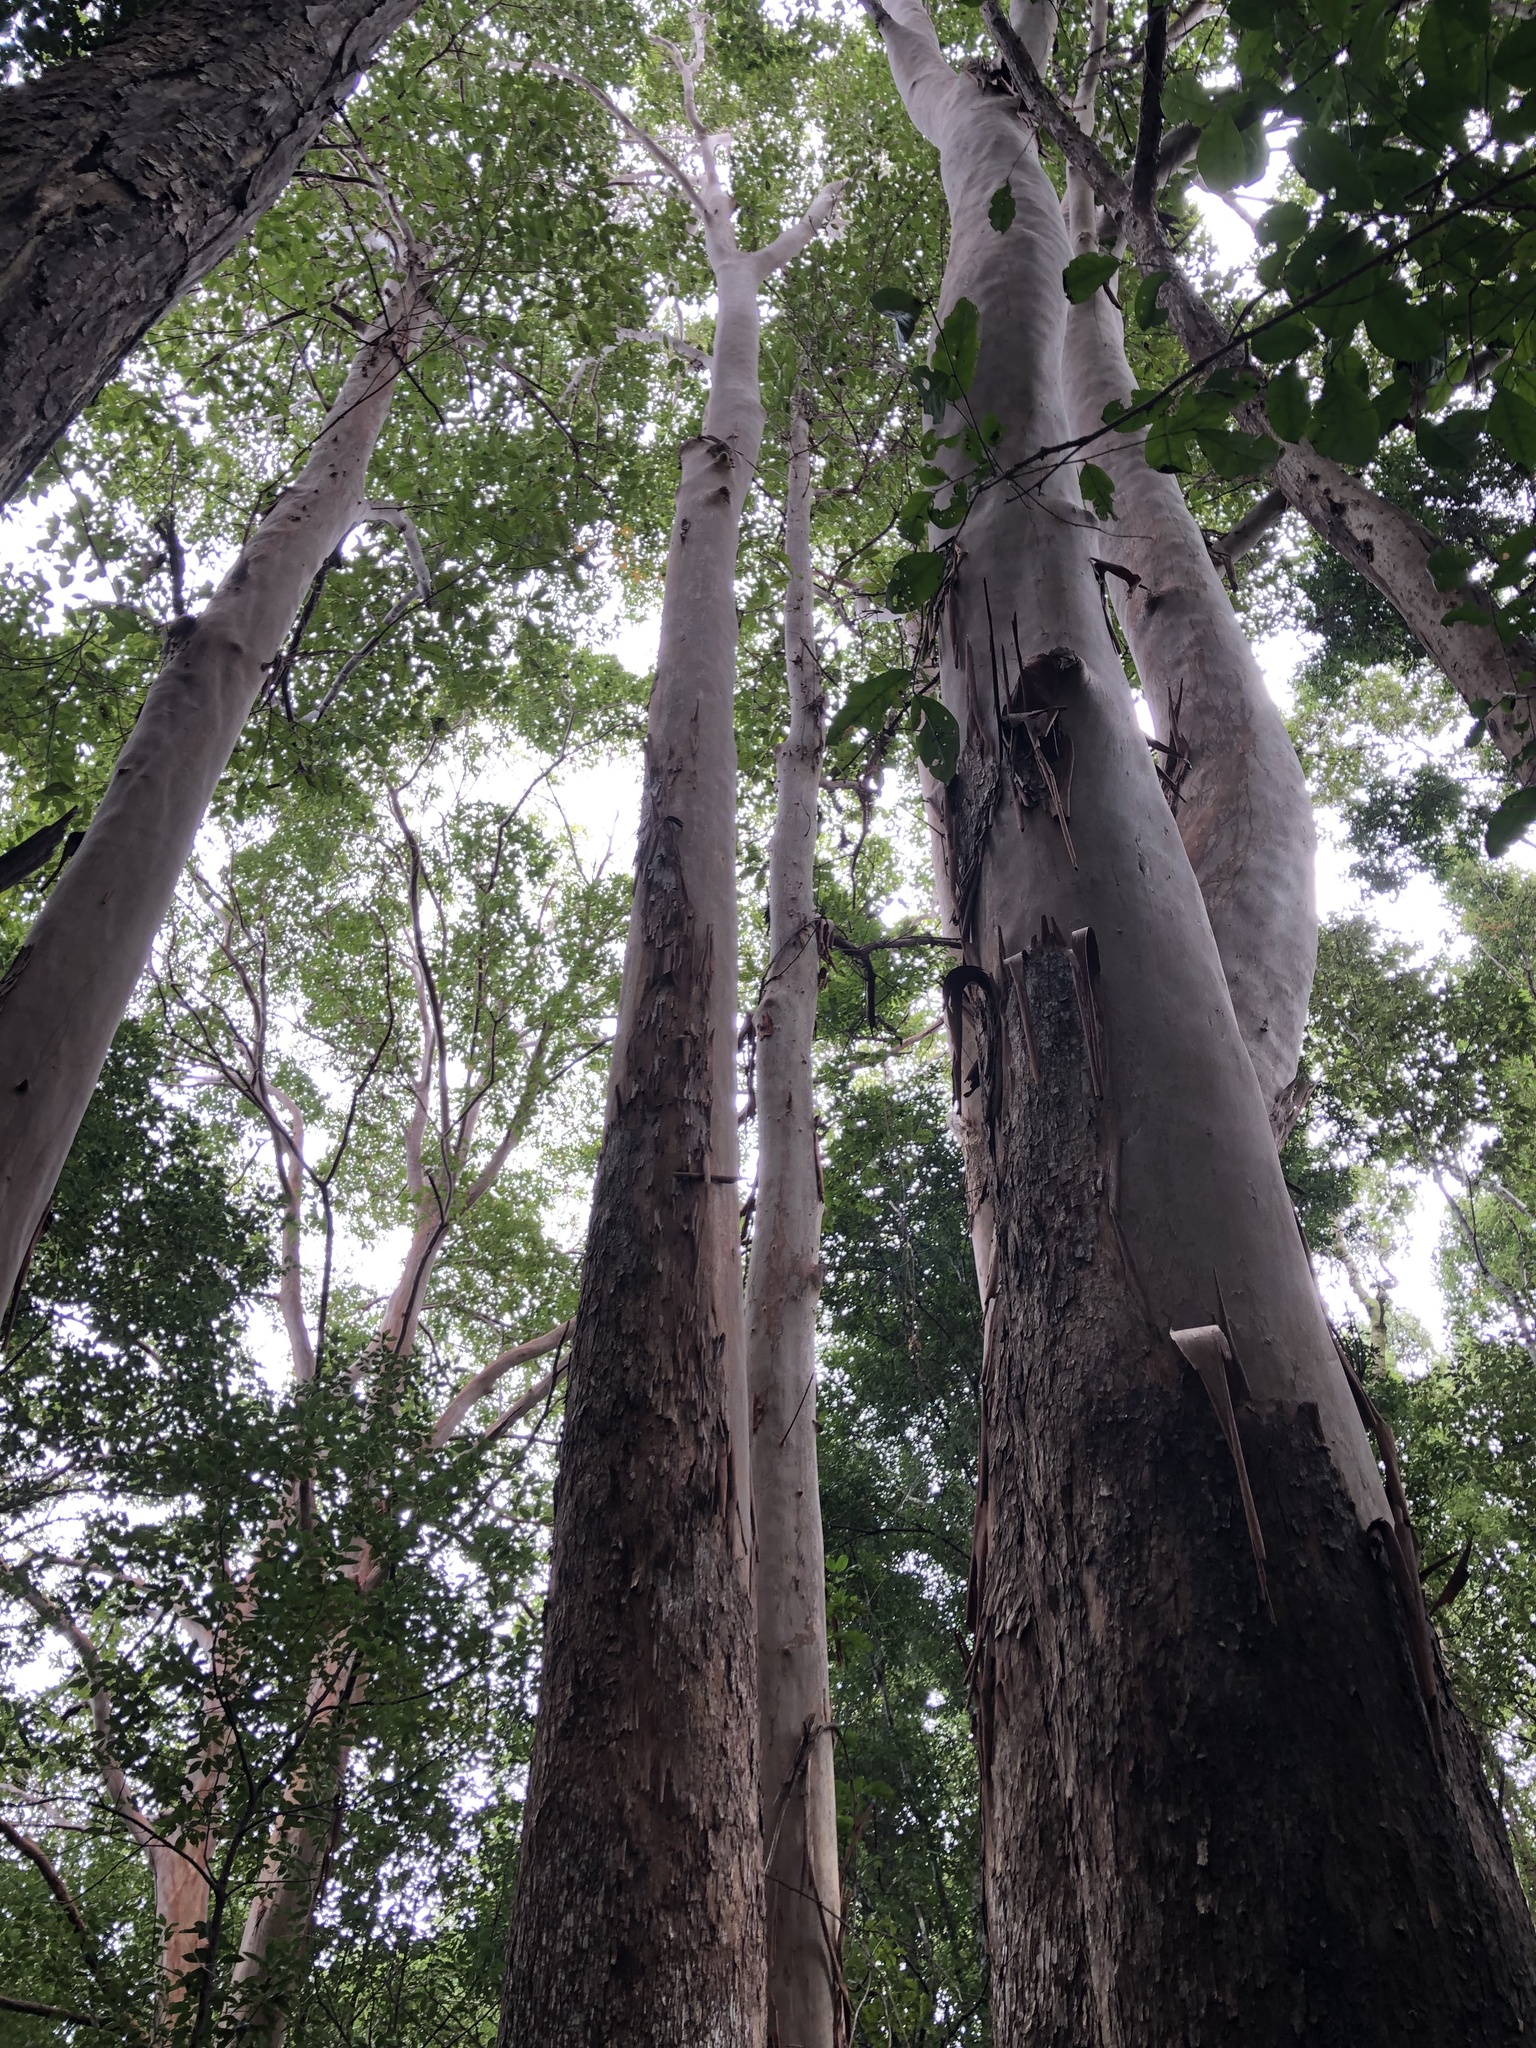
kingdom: Plantae
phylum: Tracheophyta
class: Magnoliopsida
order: Myrtales
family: Myrtaceae
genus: Lophostemon
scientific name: Lophostemon confertus
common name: Brisbane box
